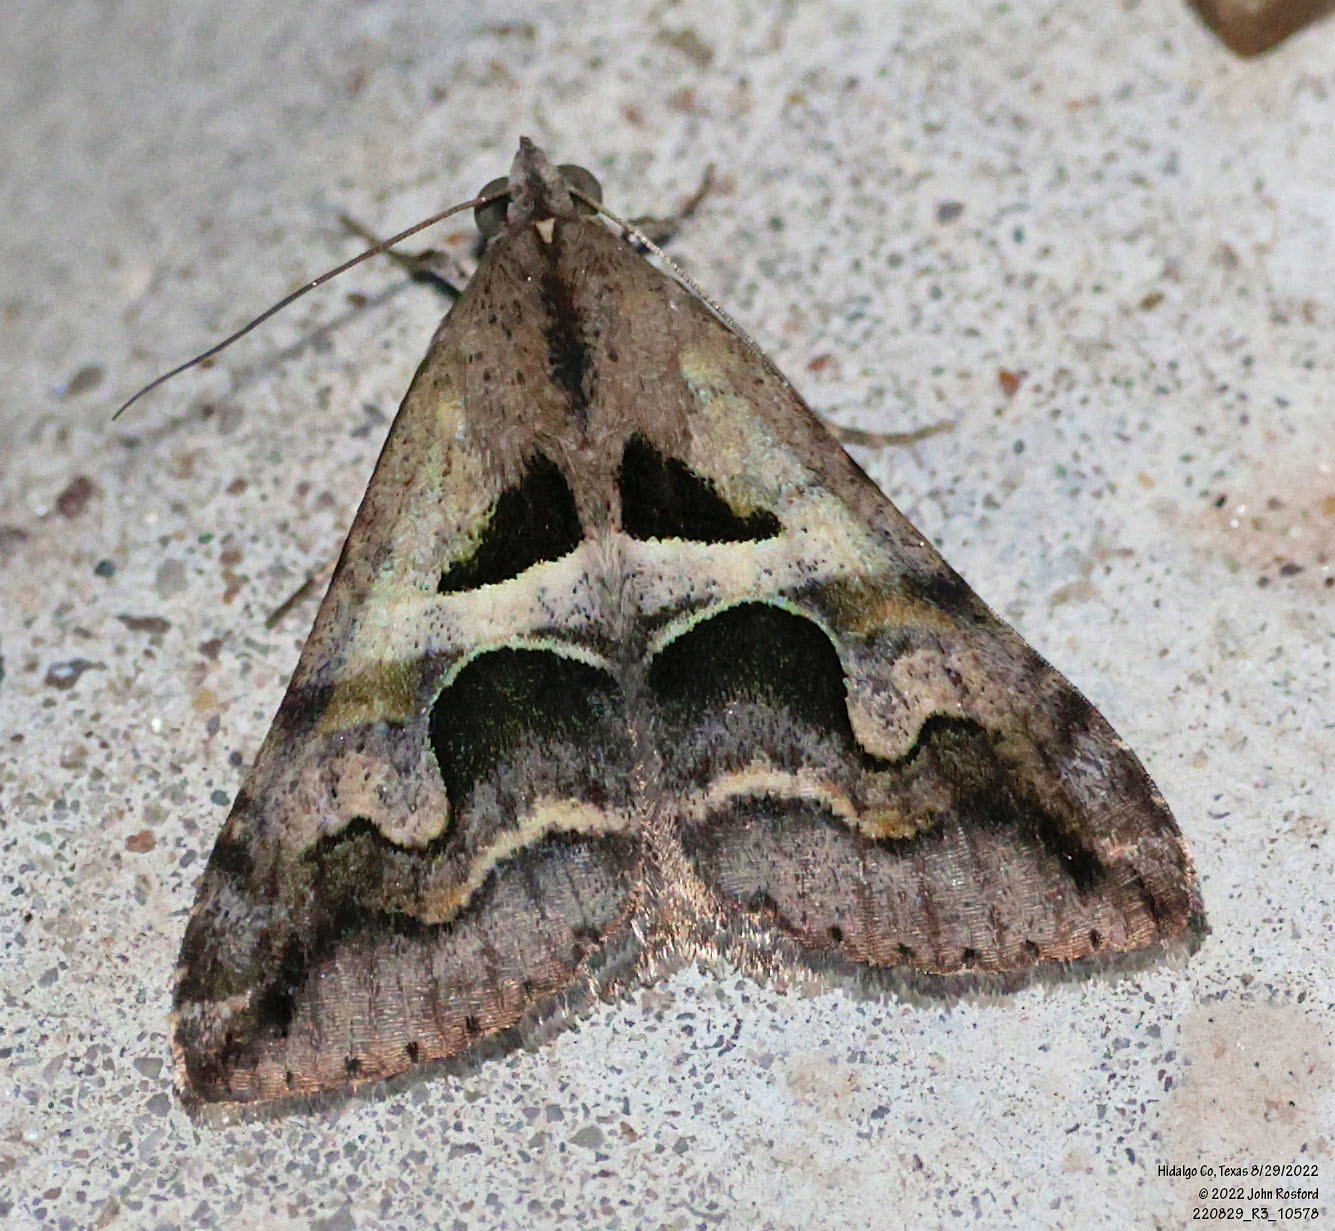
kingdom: Animalia
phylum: Arthropoda
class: Insecta
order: Lepidoptera
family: Erebidae
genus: Melipotis
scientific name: Melipotis cellaris
